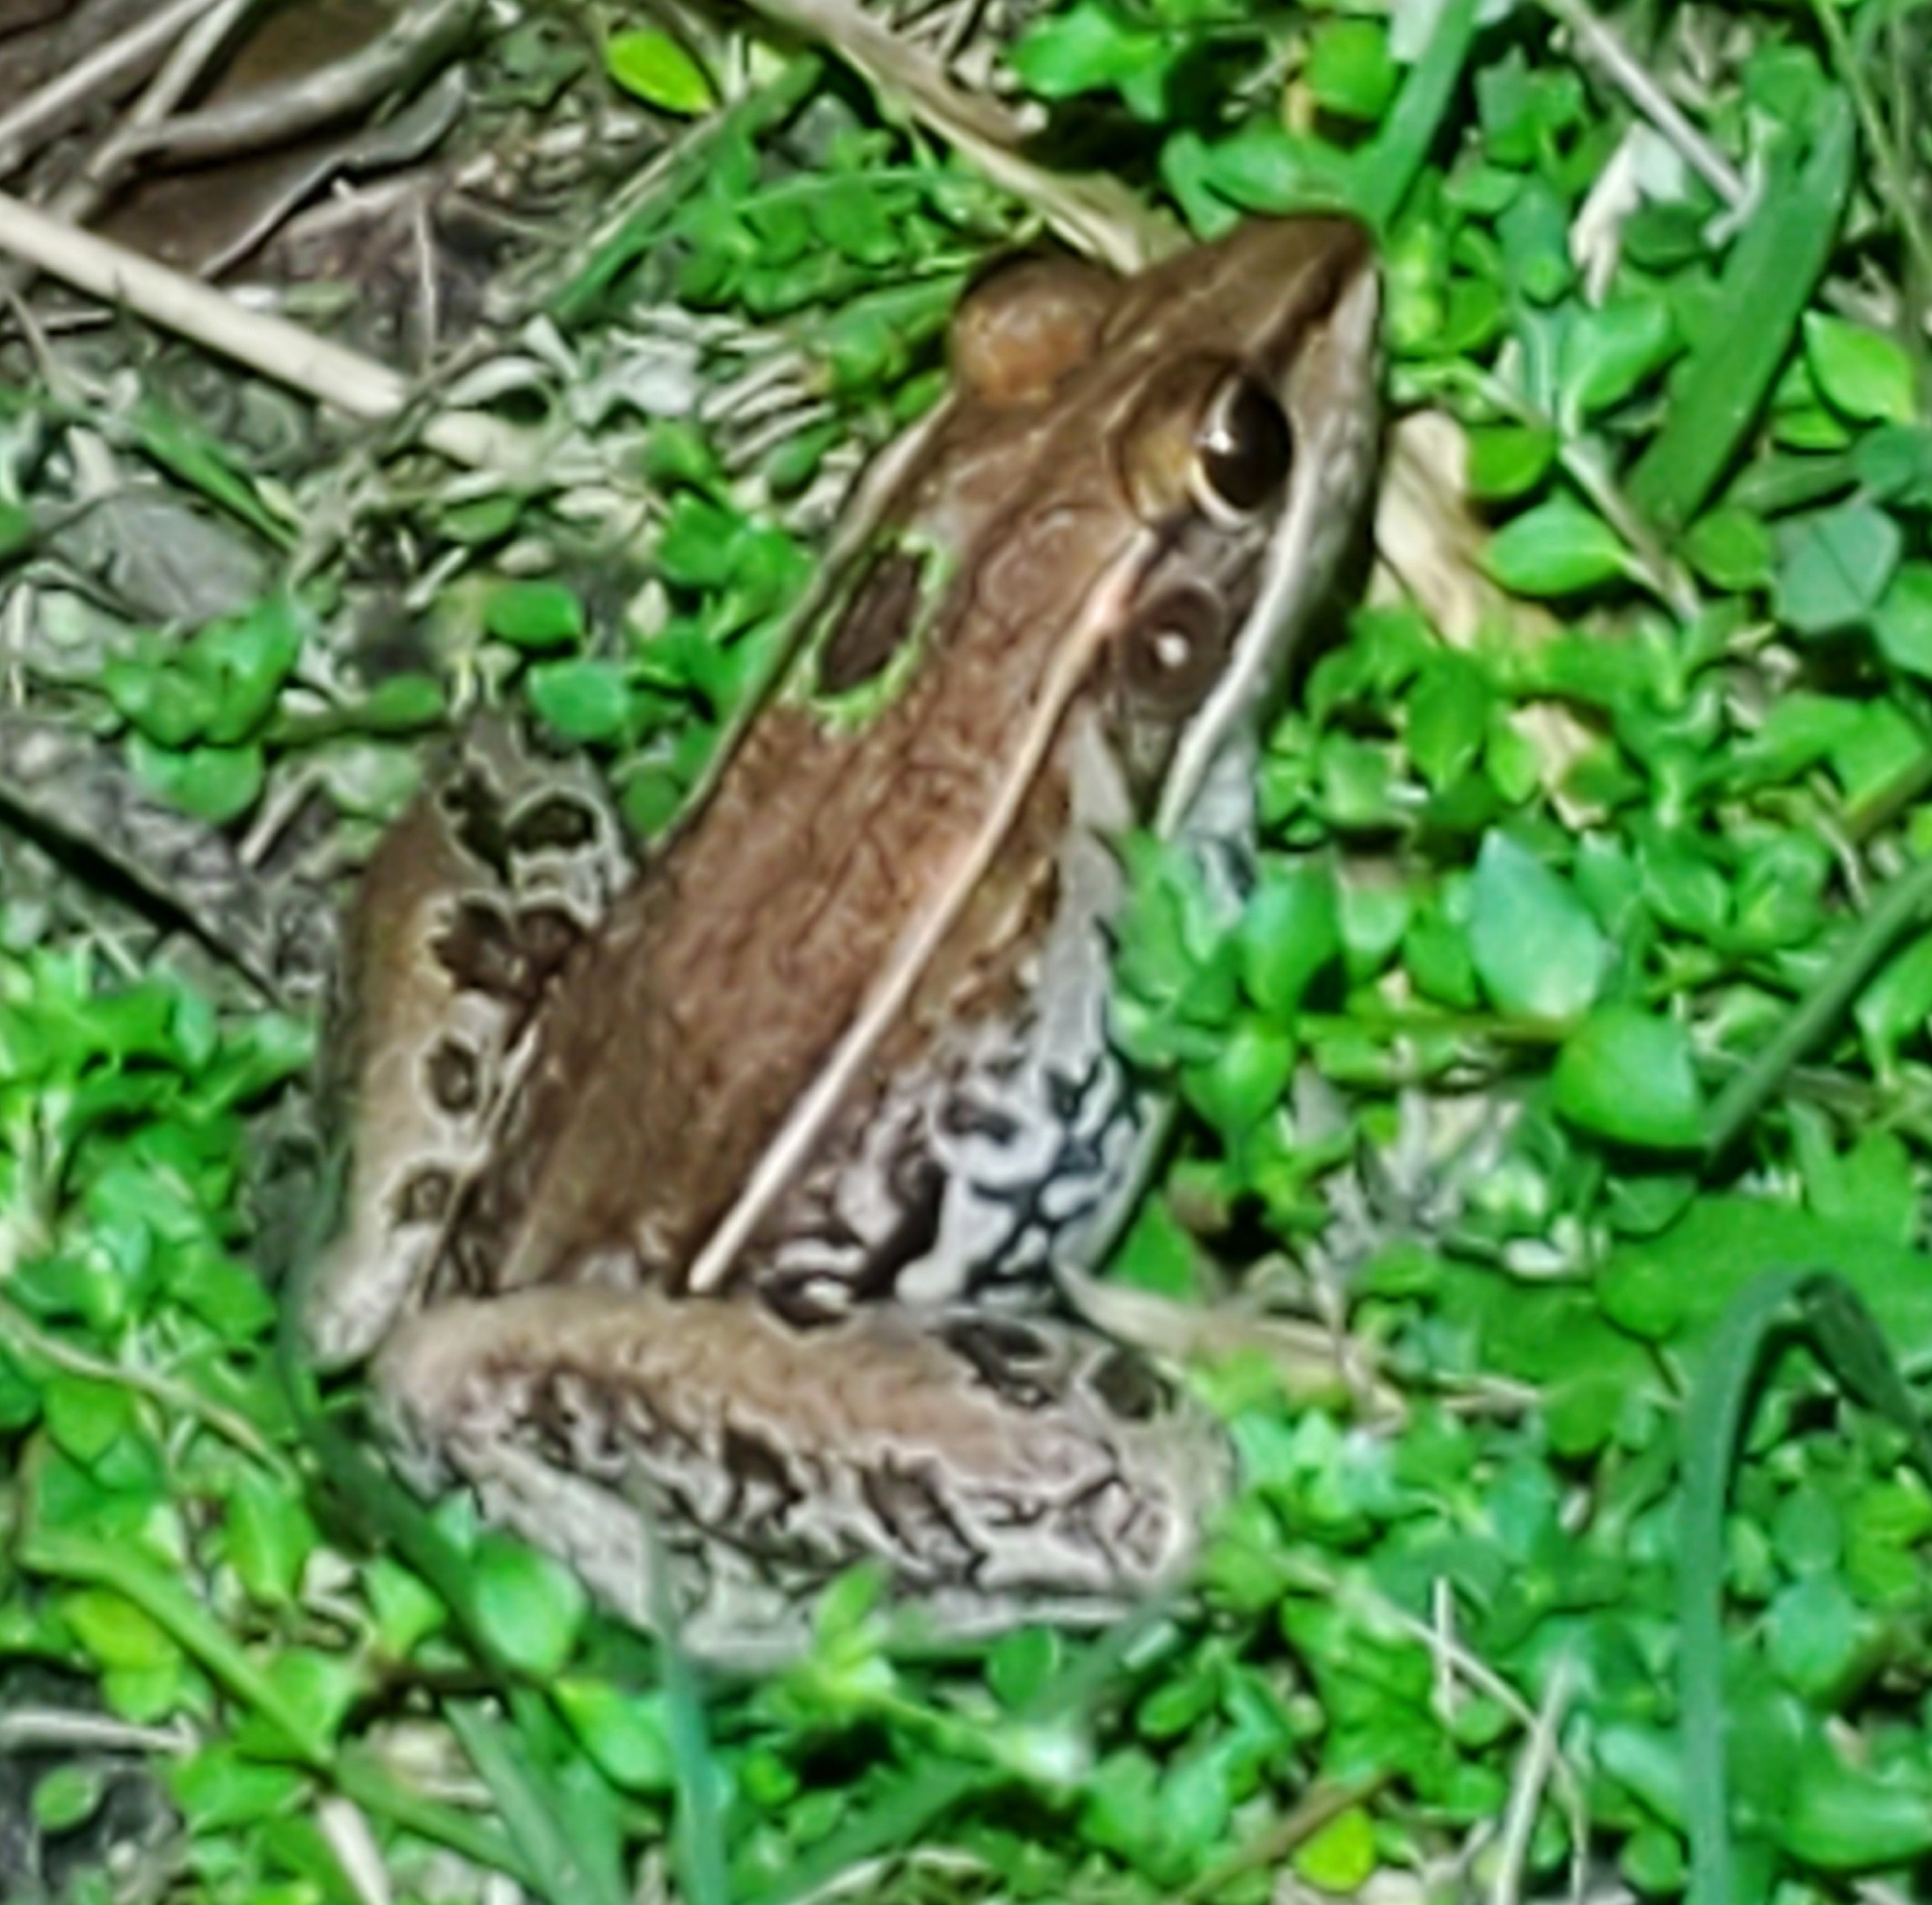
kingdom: Animalia
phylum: Chordata
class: Amphibia
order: Anura
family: Ranidae
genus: Lithobates
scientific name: Lithobates sphenocephalus
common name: Southern leopard frog
